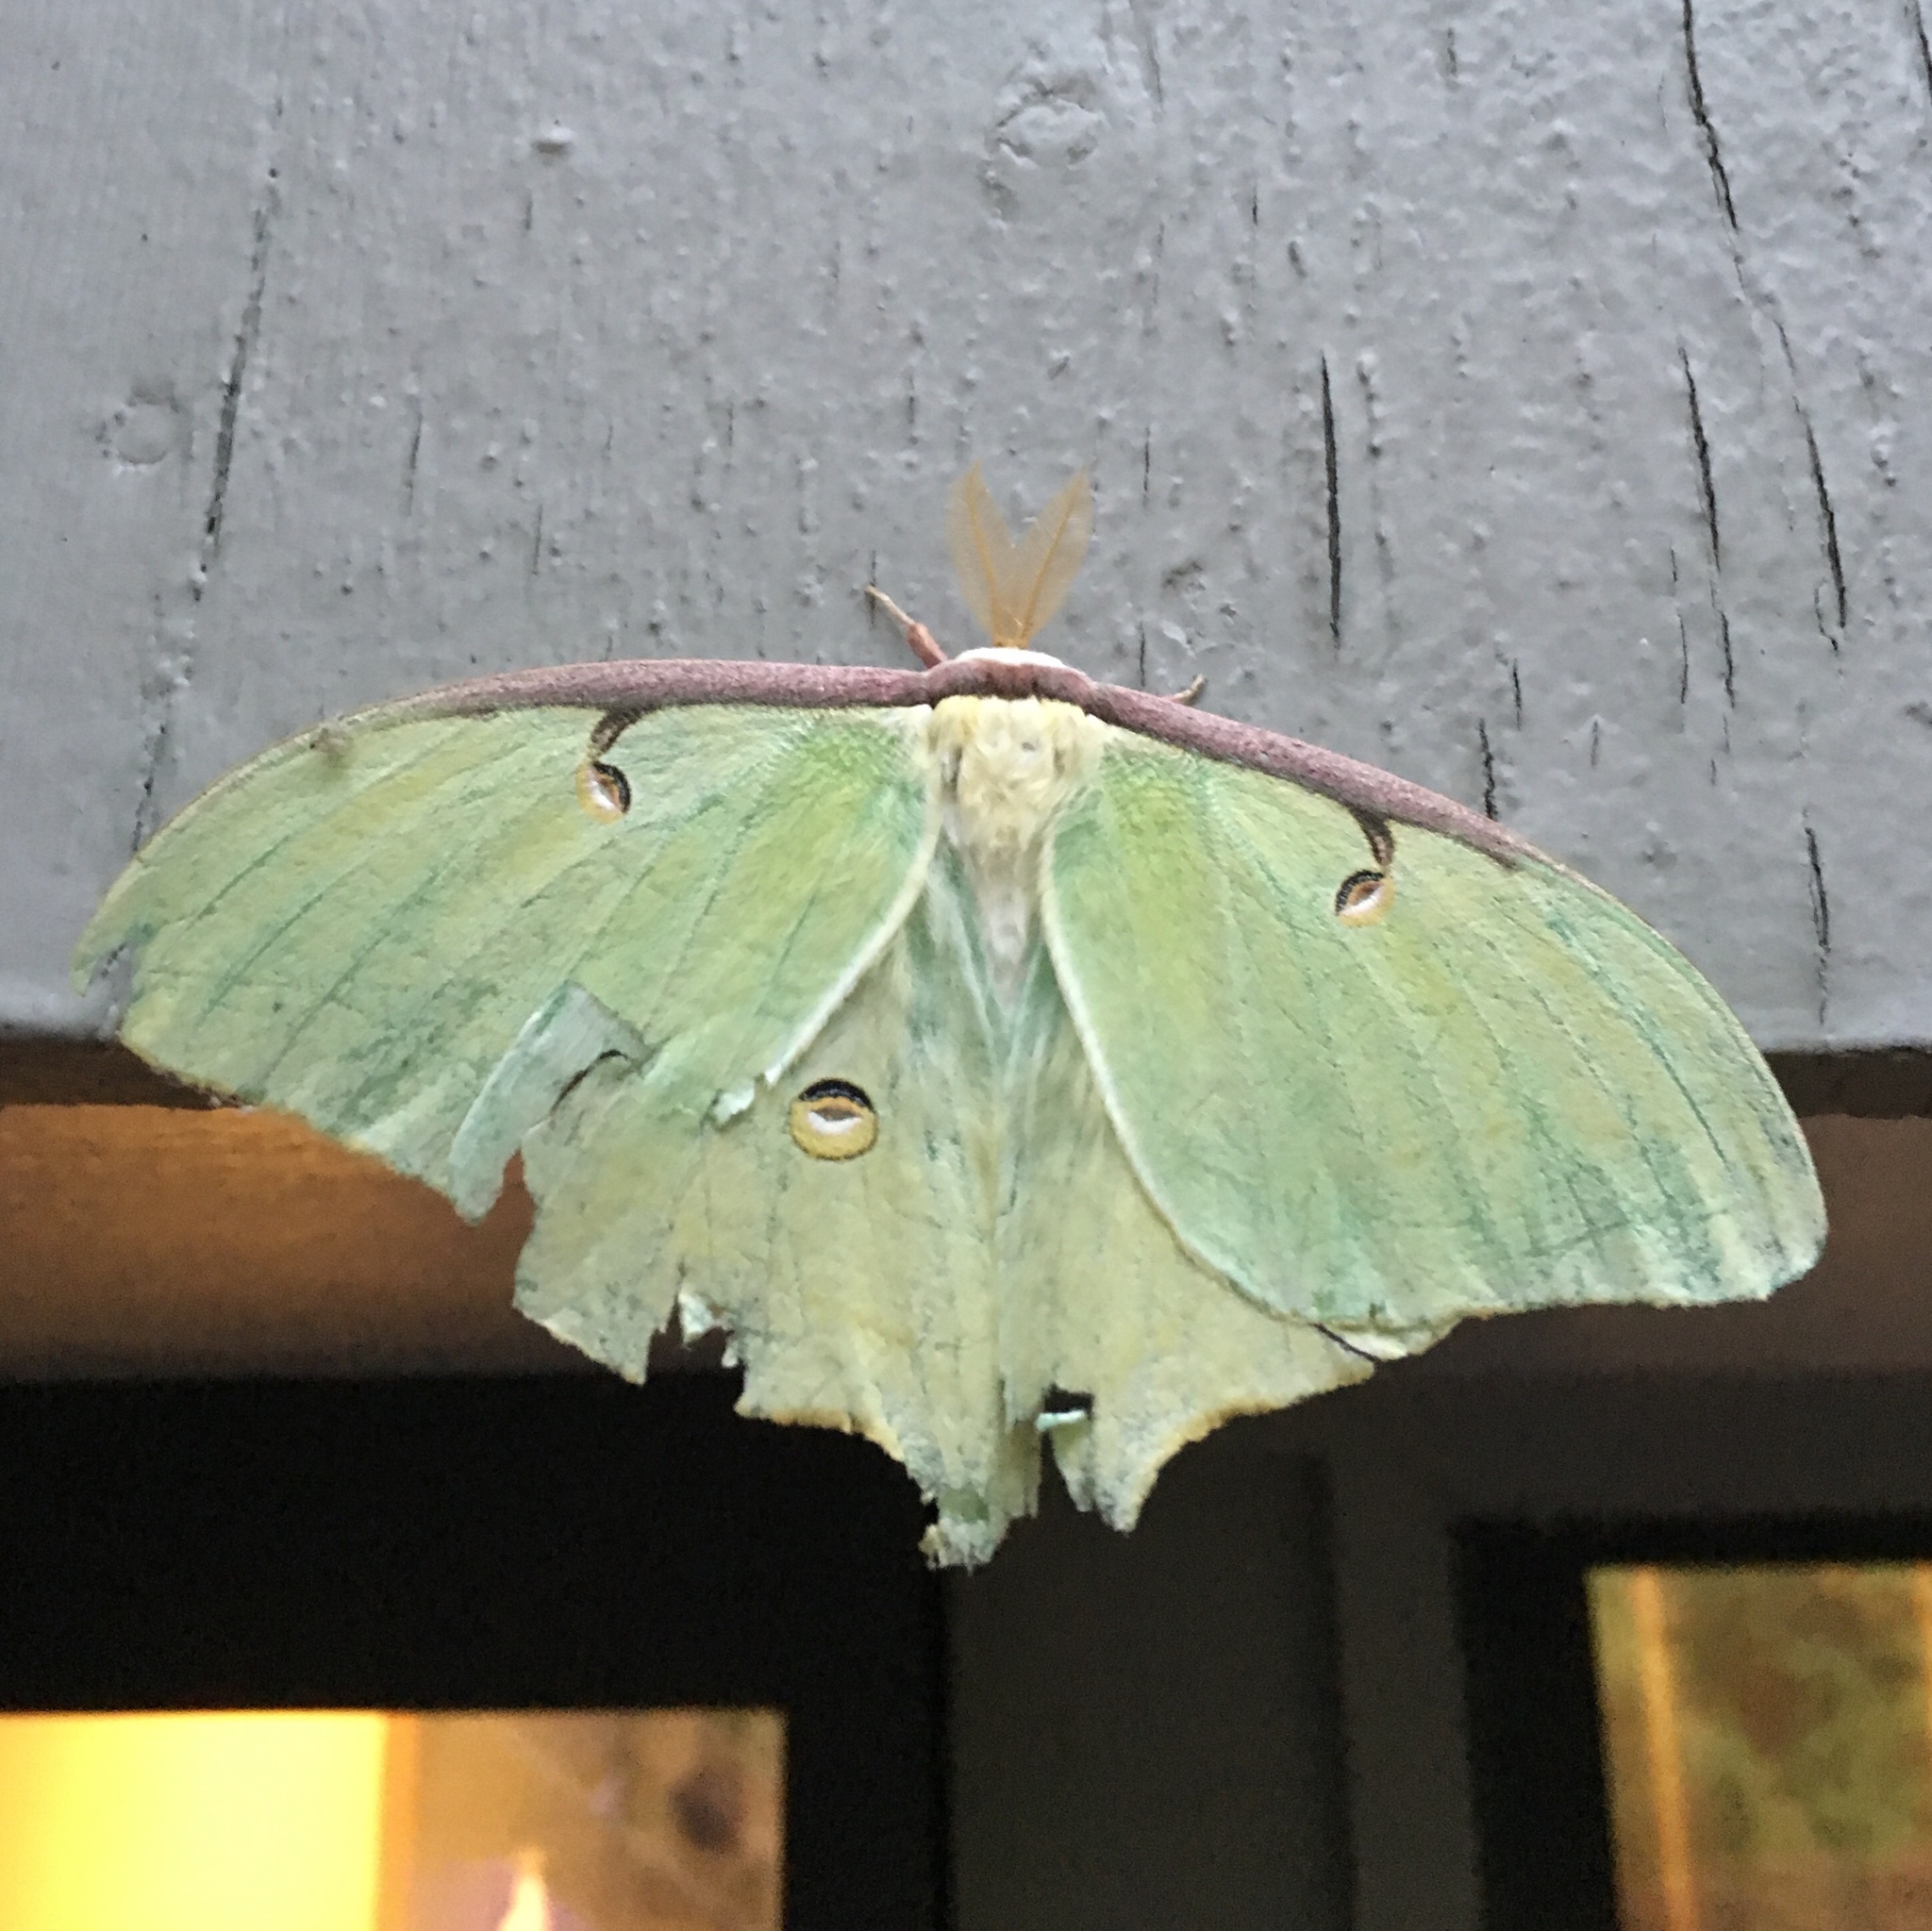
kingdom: Animalia
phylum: Arthropoda
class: Insecta
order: Lepidoptera
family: Saturniidae
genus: Actias
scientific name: Actias luna
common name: Luna moth
